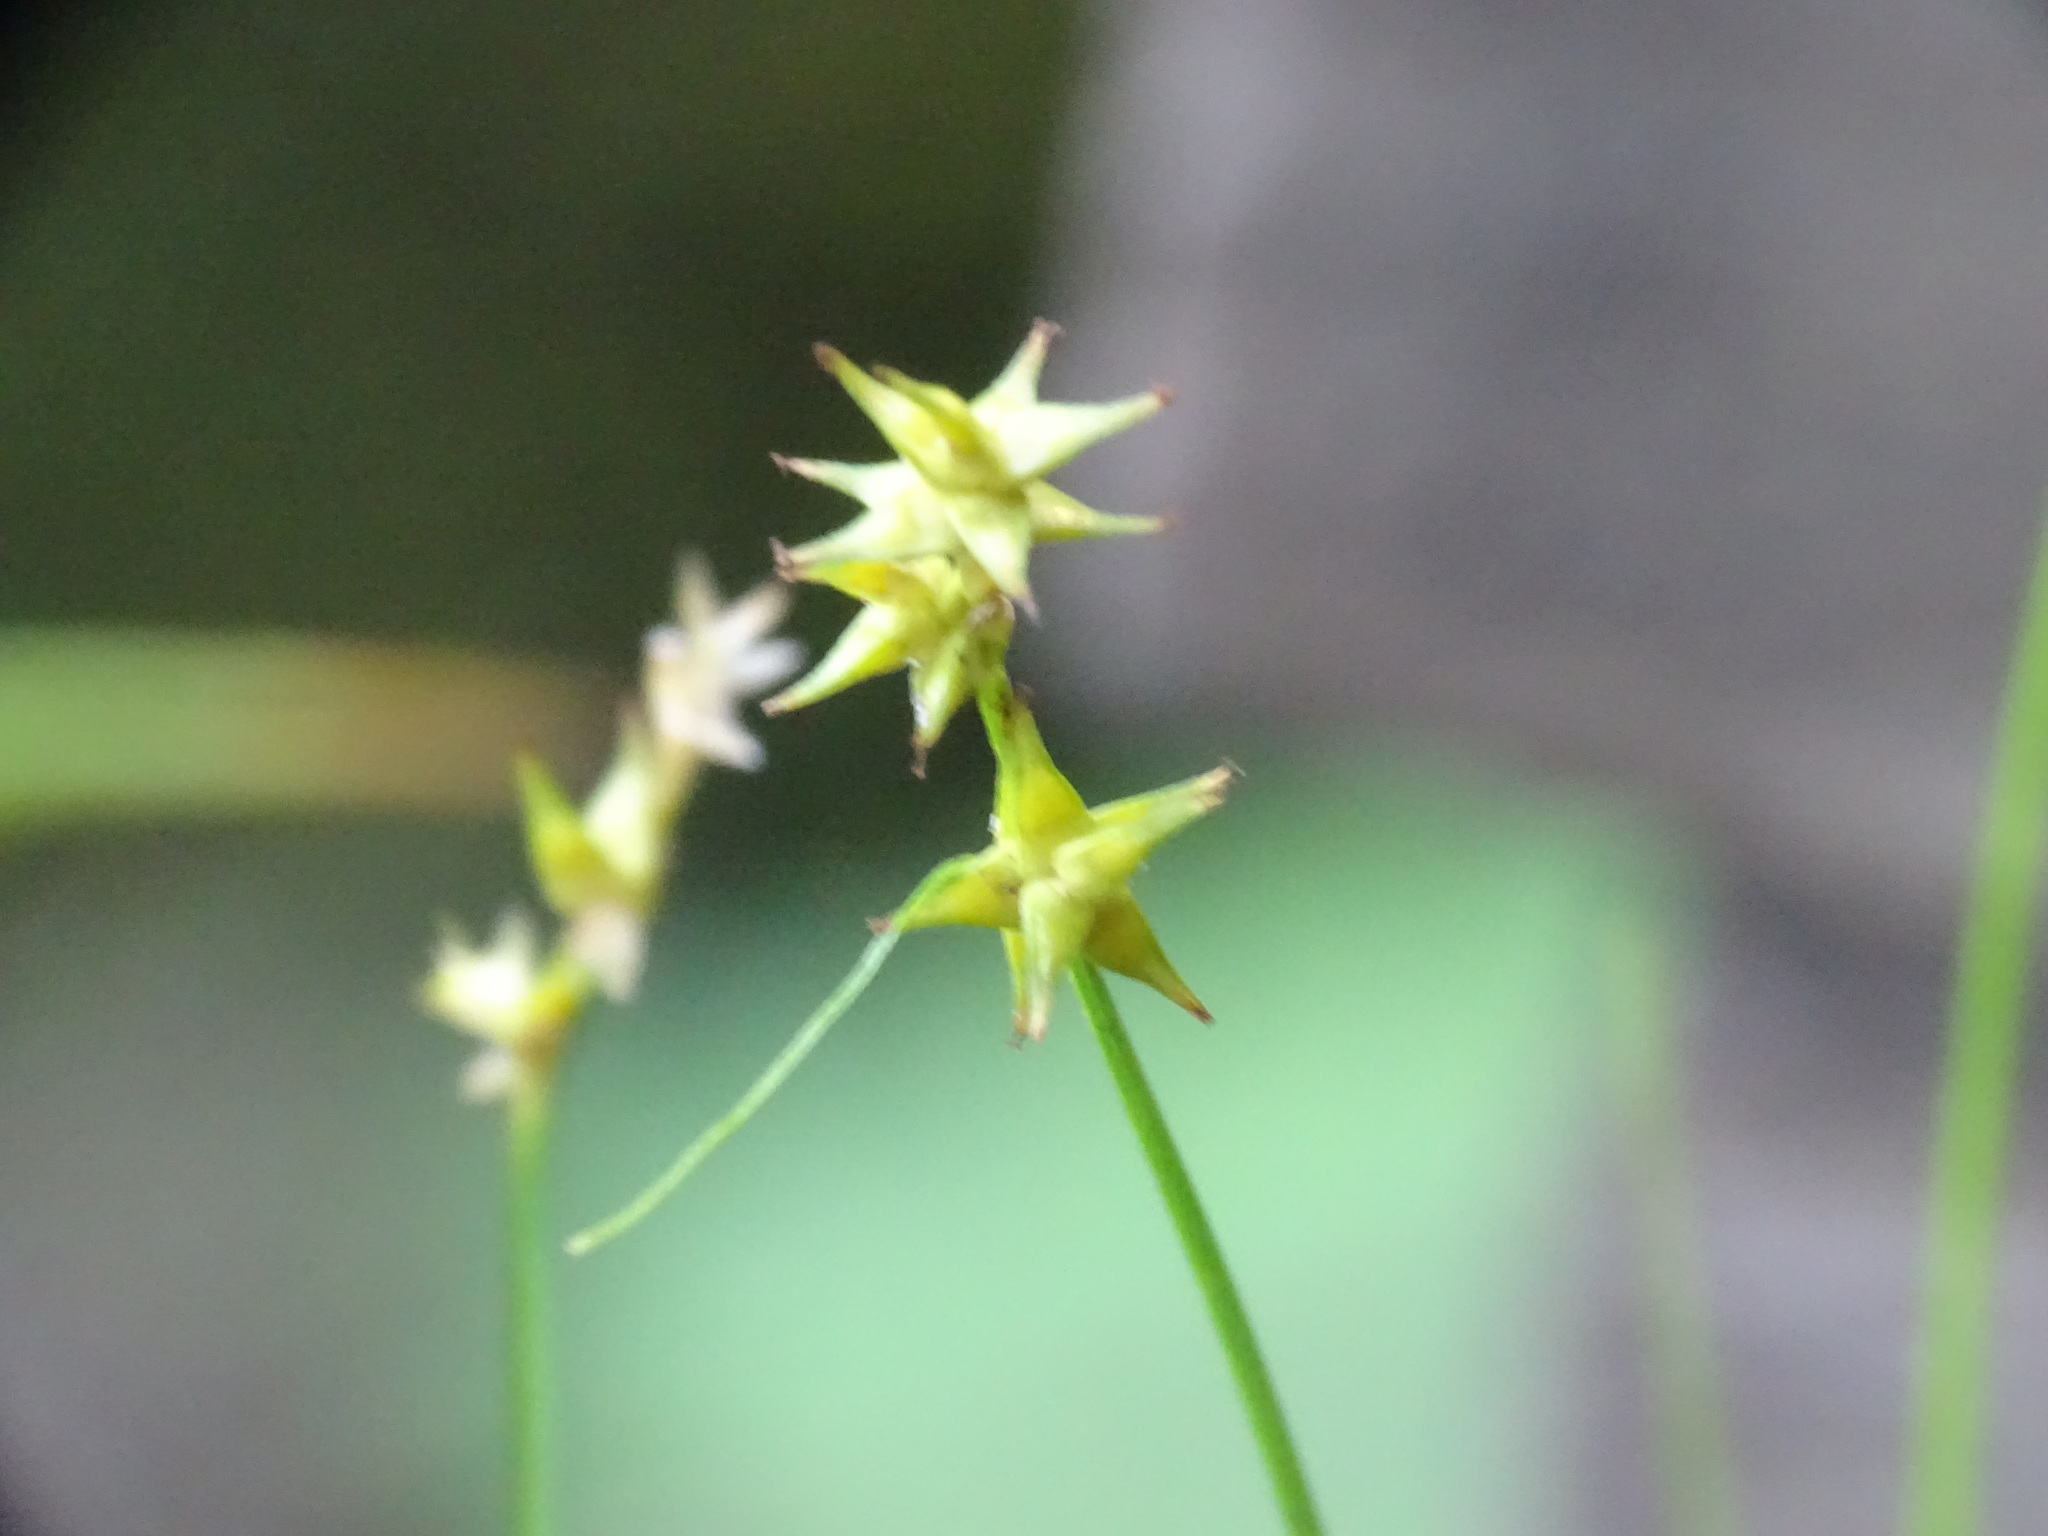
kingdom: Plantae
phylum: Tracheophyta
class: Liliopsida
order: Poales
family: Cyperaceae
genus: Carex
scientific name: Carex echinata
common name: Star sedge
